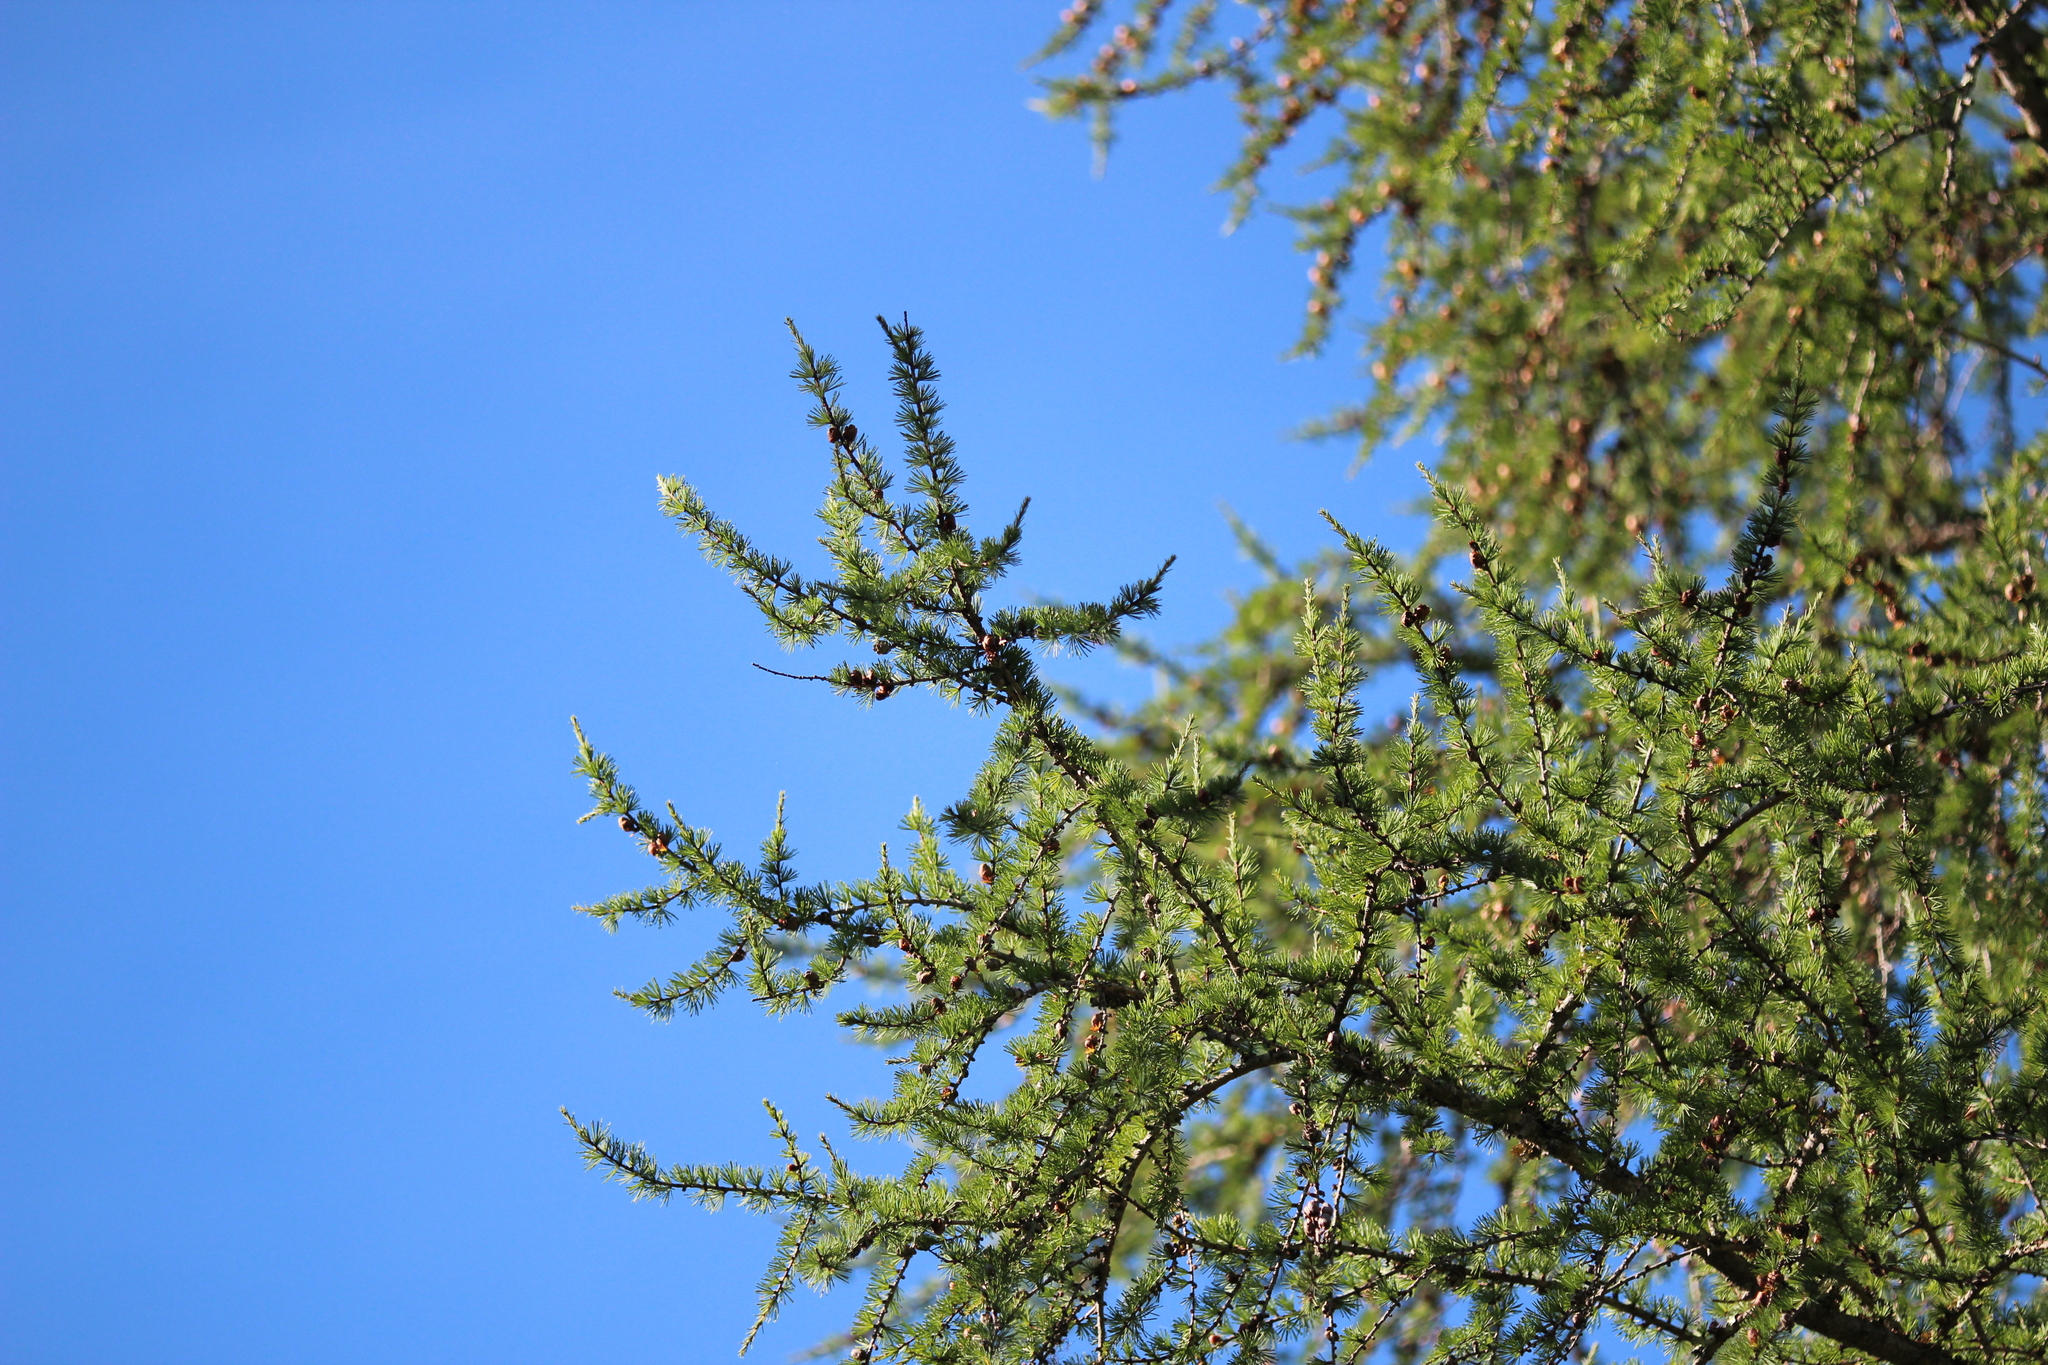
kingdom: Plantae
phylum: Tracheophyta
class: Pinopsida
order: Pinales
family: Pinaceae
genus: Larix
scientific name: Larix laricina
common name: American larch
